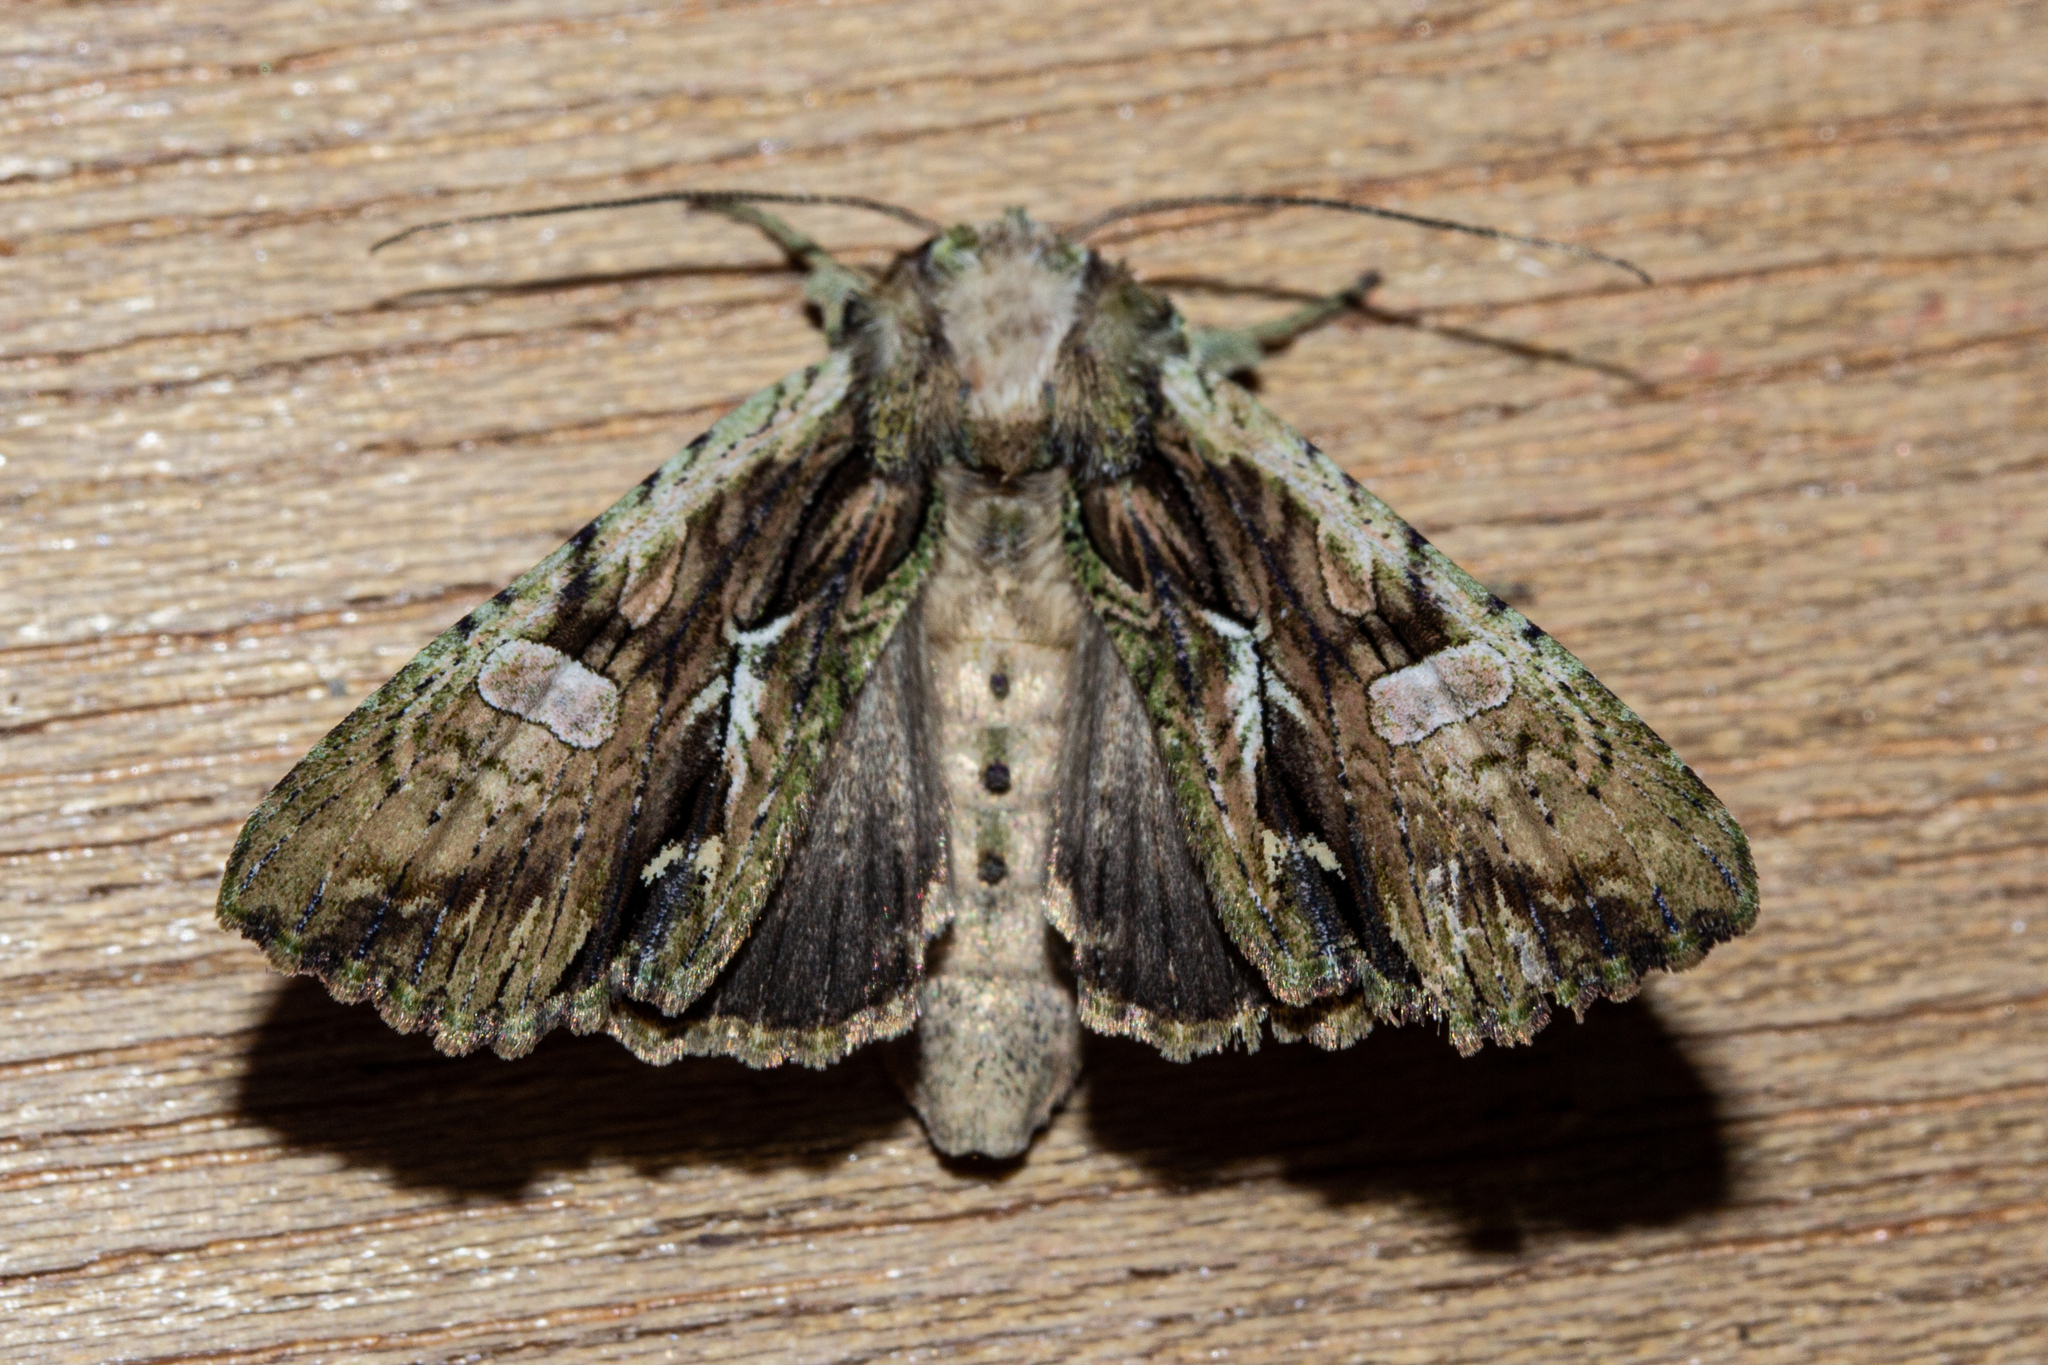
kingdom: Animalia
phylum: Arthropoda
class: Insecta
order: Lepidoptera
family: Noctuidae
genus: Meterana
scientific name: Meterana decorata
